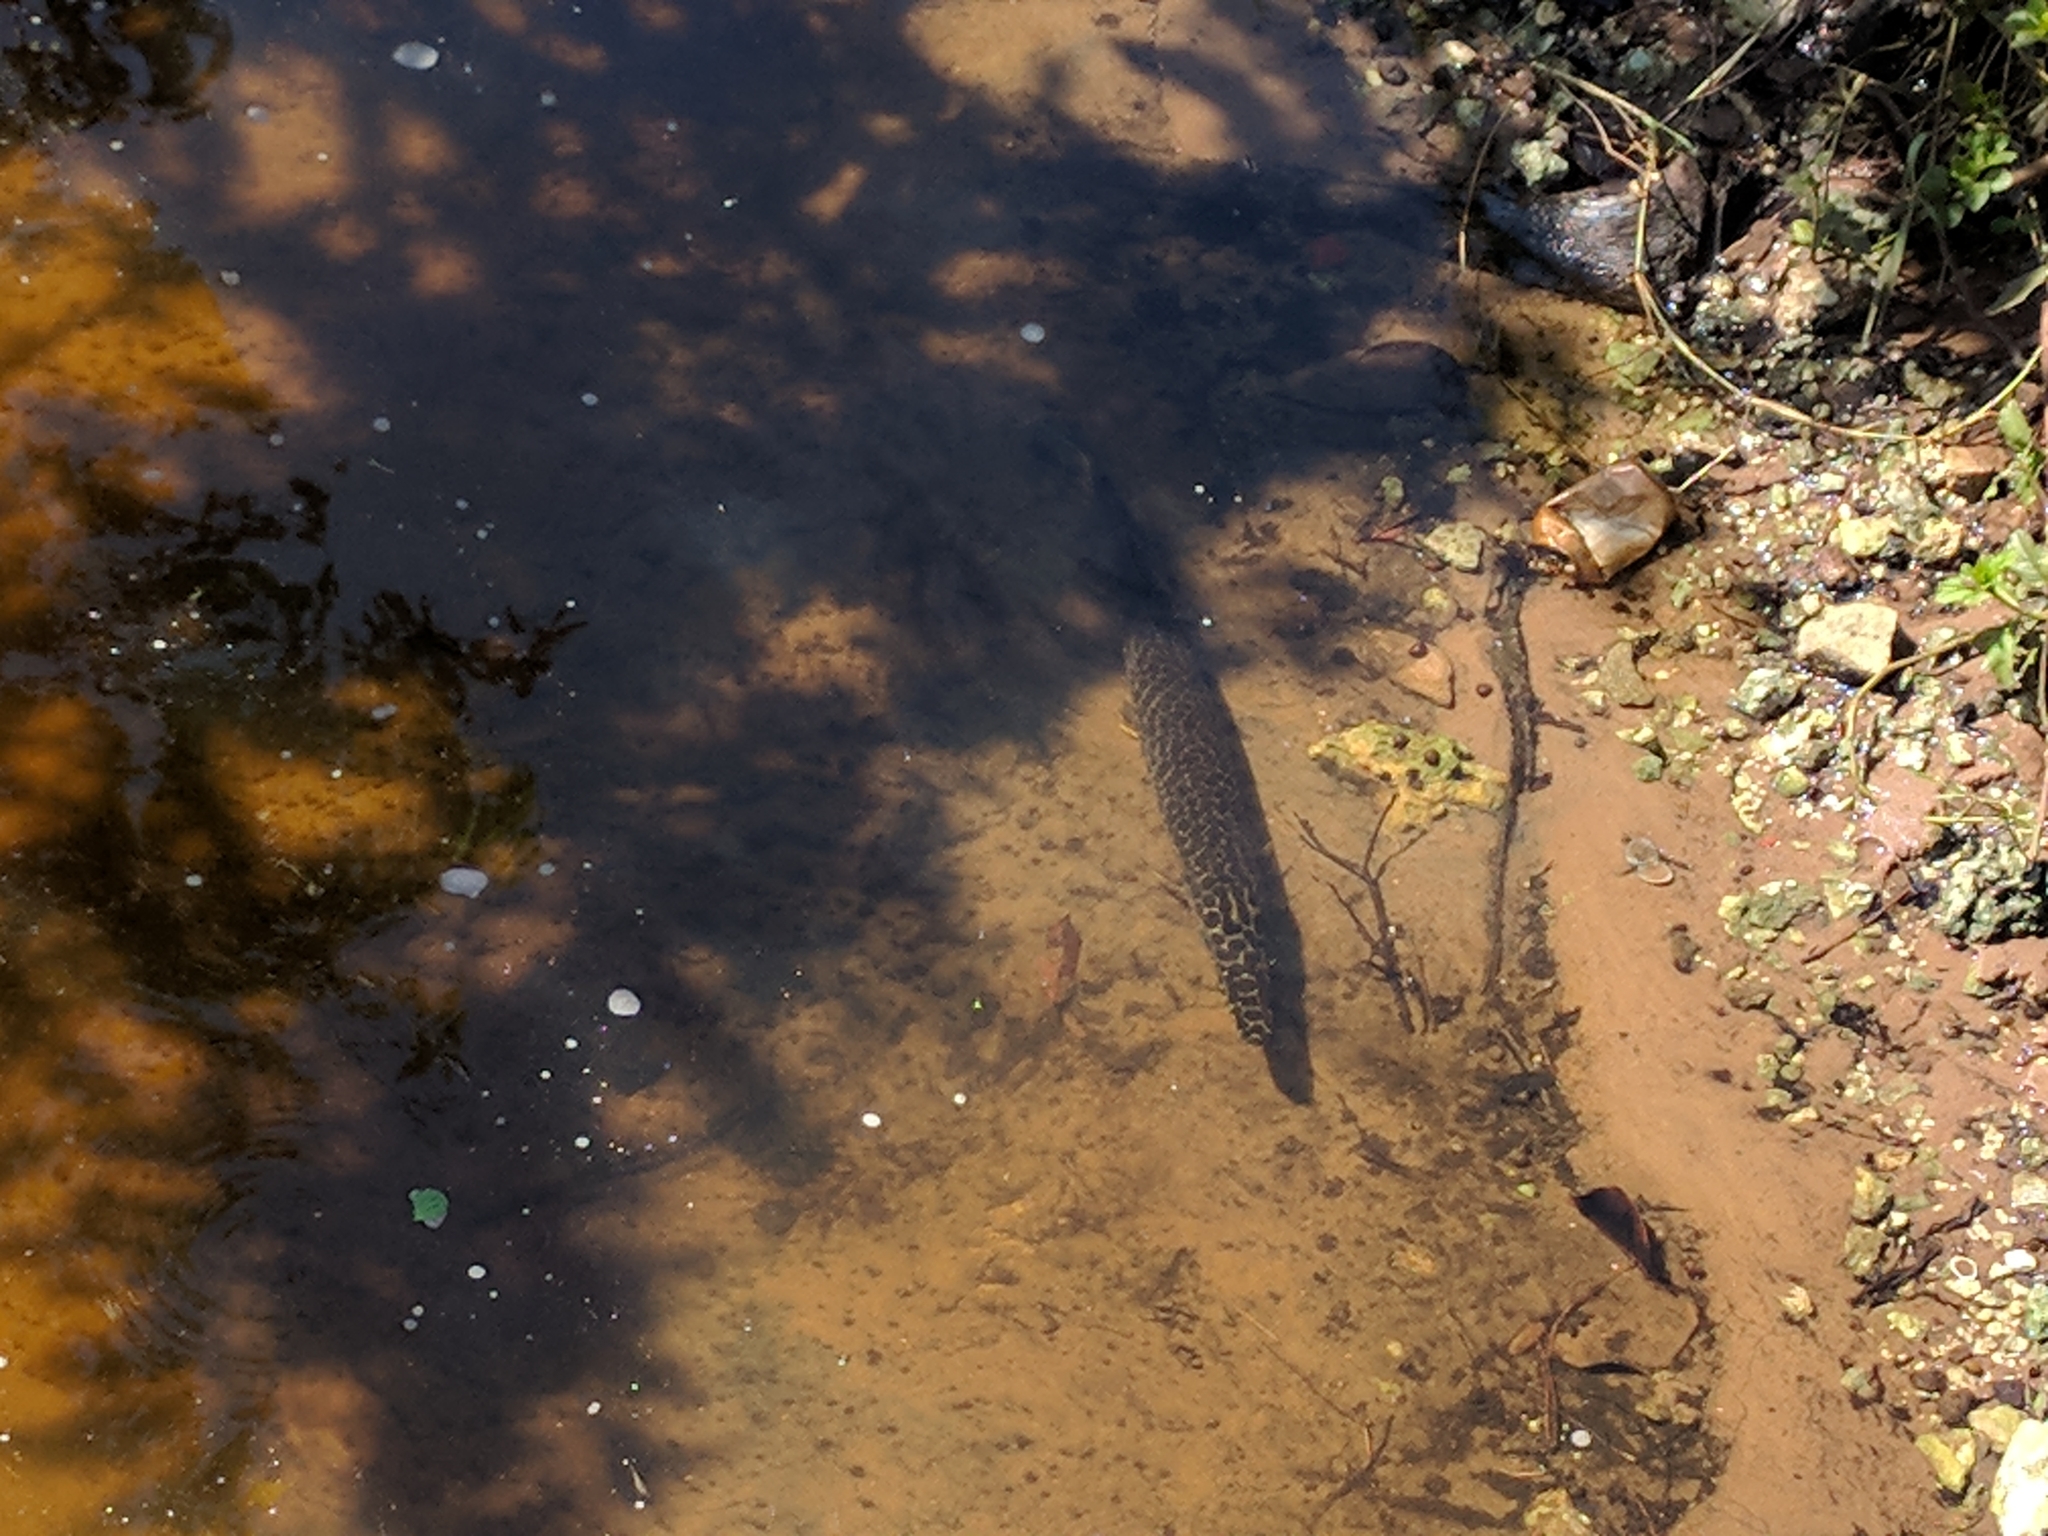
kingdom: Animalia
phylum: Chordata
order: Lepisosteiformes
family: Lepisosteidae
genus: Lepisosteus
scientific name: Lepisosteus platyrhincus
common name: Florida gar
